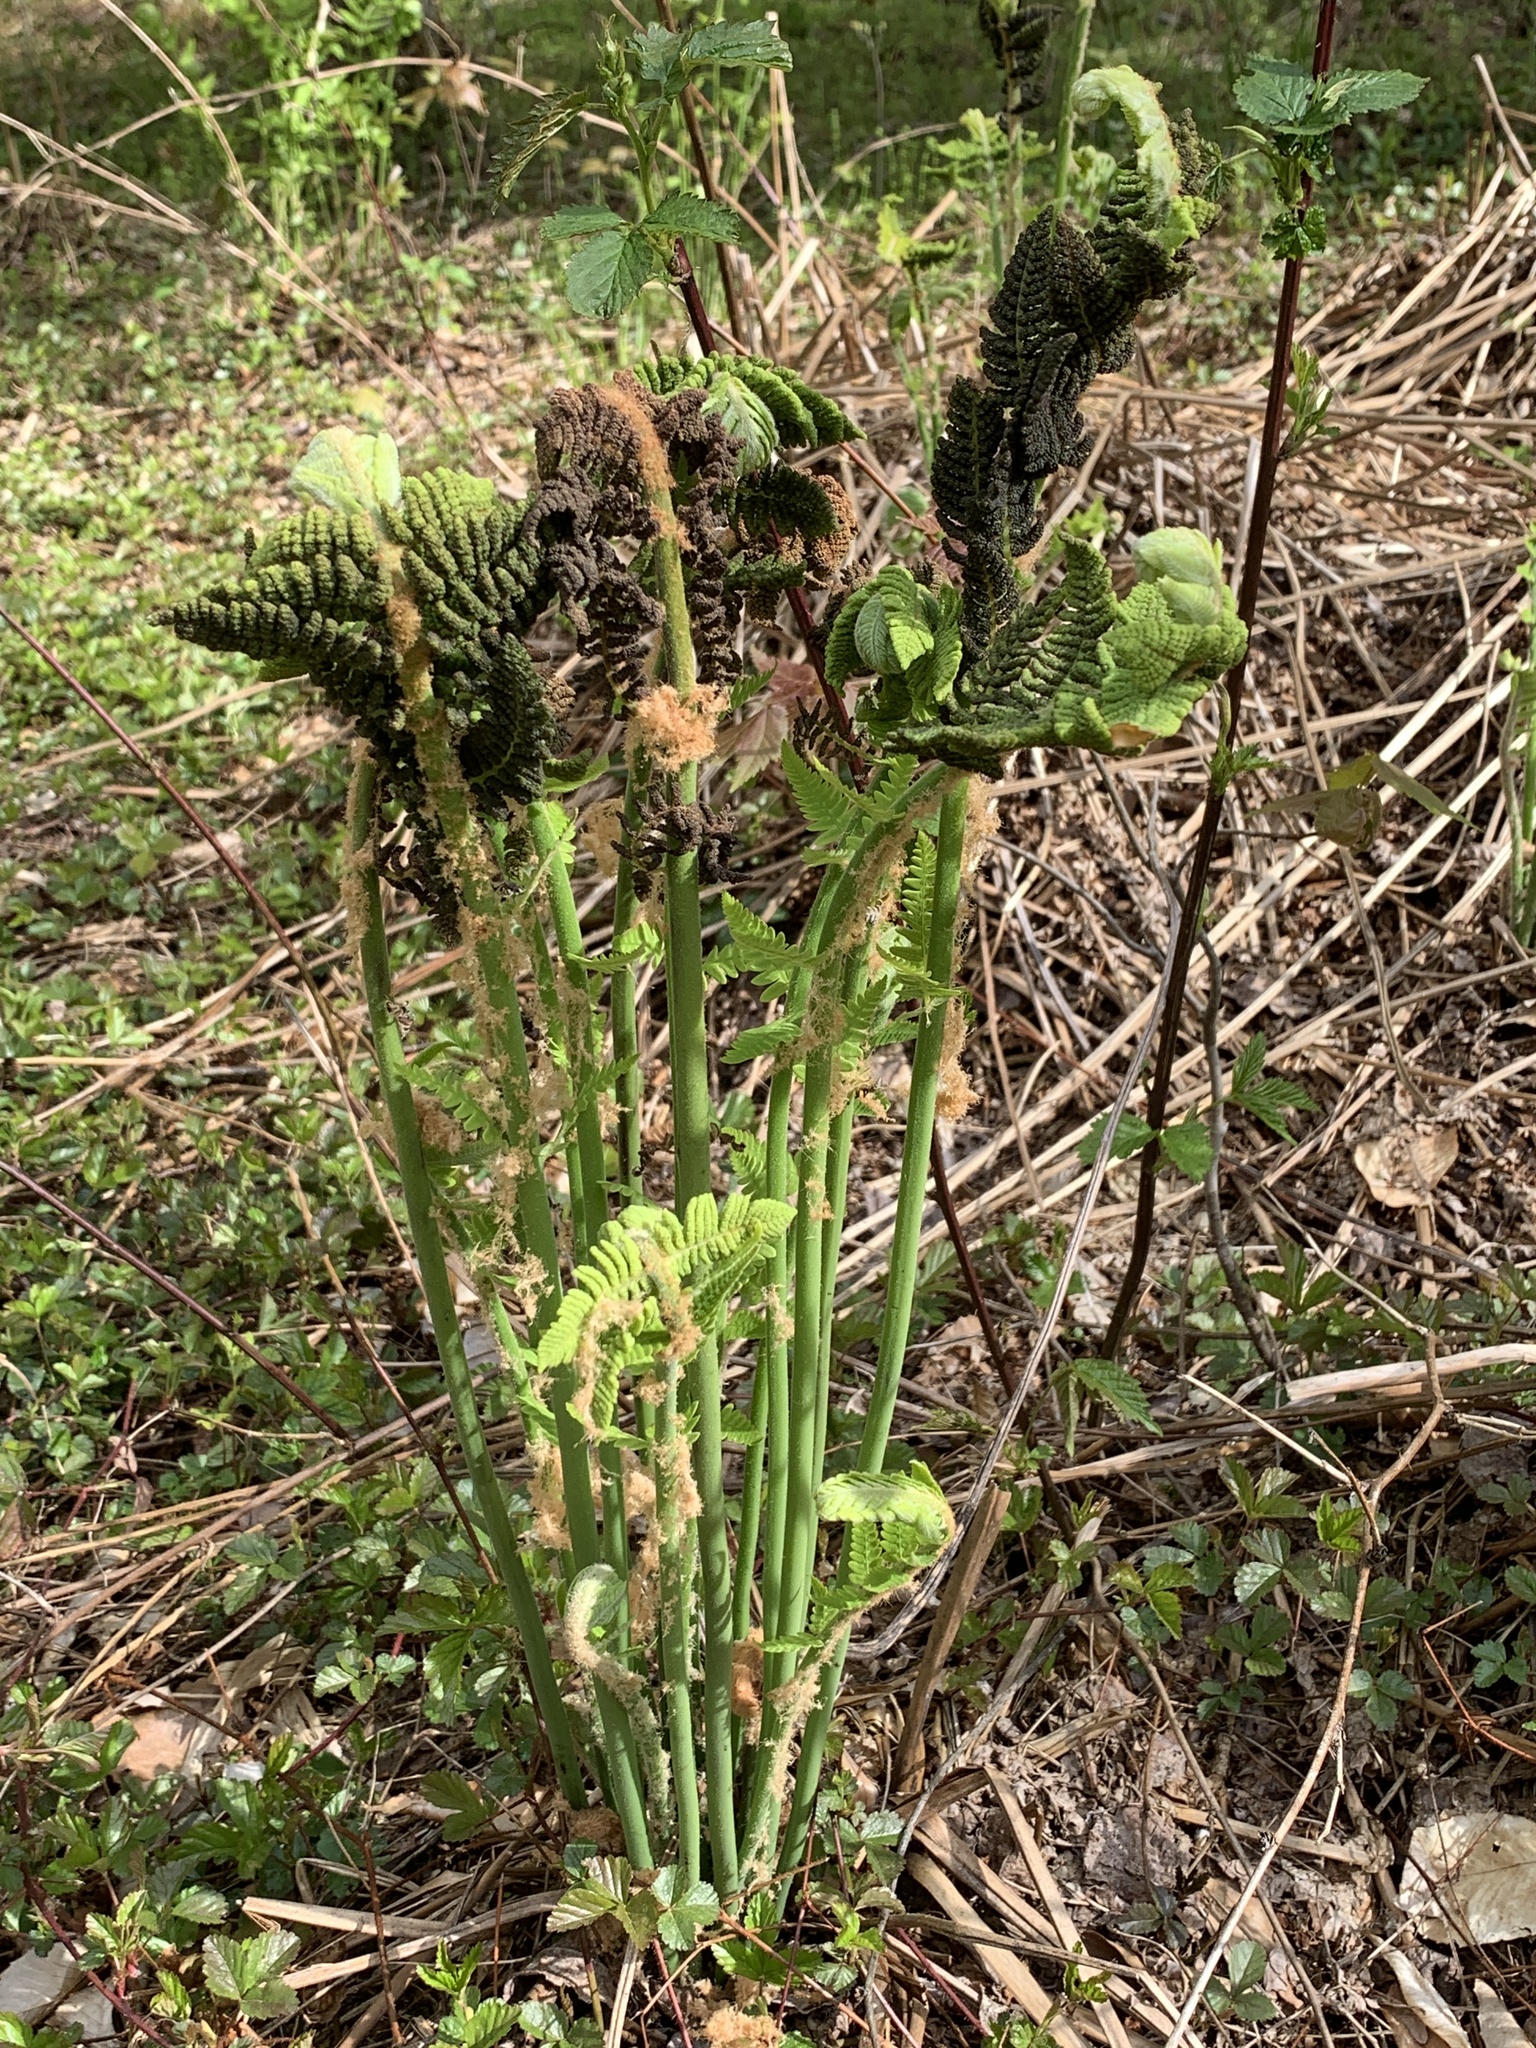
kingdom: Plantae
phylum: Tracheophyta
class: Polypodiopsida
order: Osmundales
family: Osmundaceae
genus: Claytosmunda
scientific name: Claytosmunda claytoniana
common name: Clayton's fern
